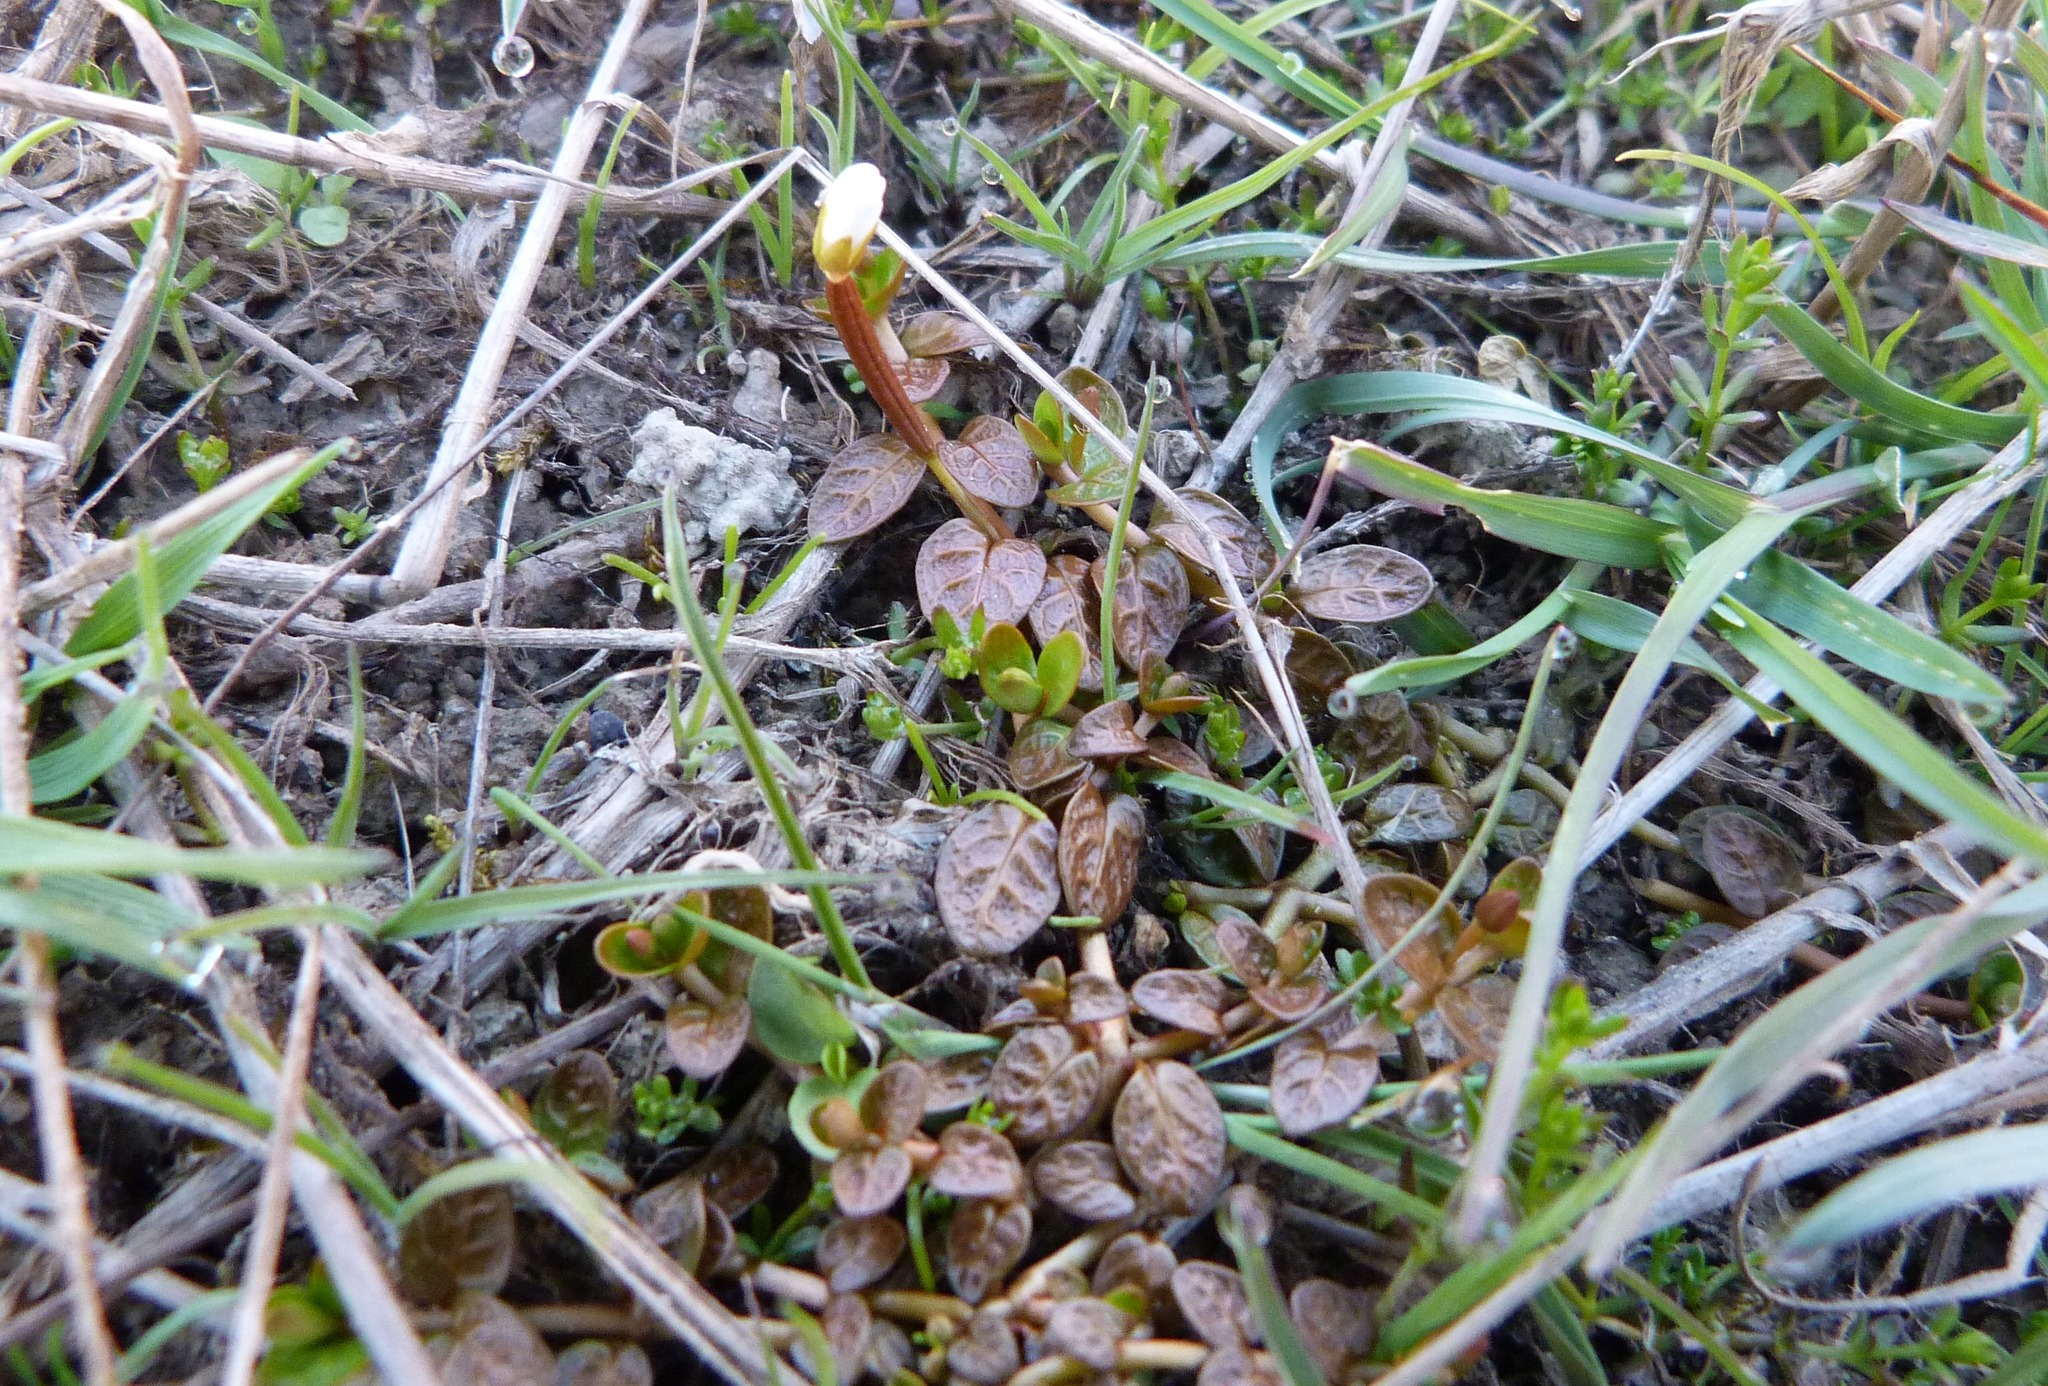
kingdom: Plantae
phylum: Tracheophyta
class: Magnoliopsida
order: Myrtales
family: Onagraceae
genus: Epilobium
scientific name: Epilobium angustum
